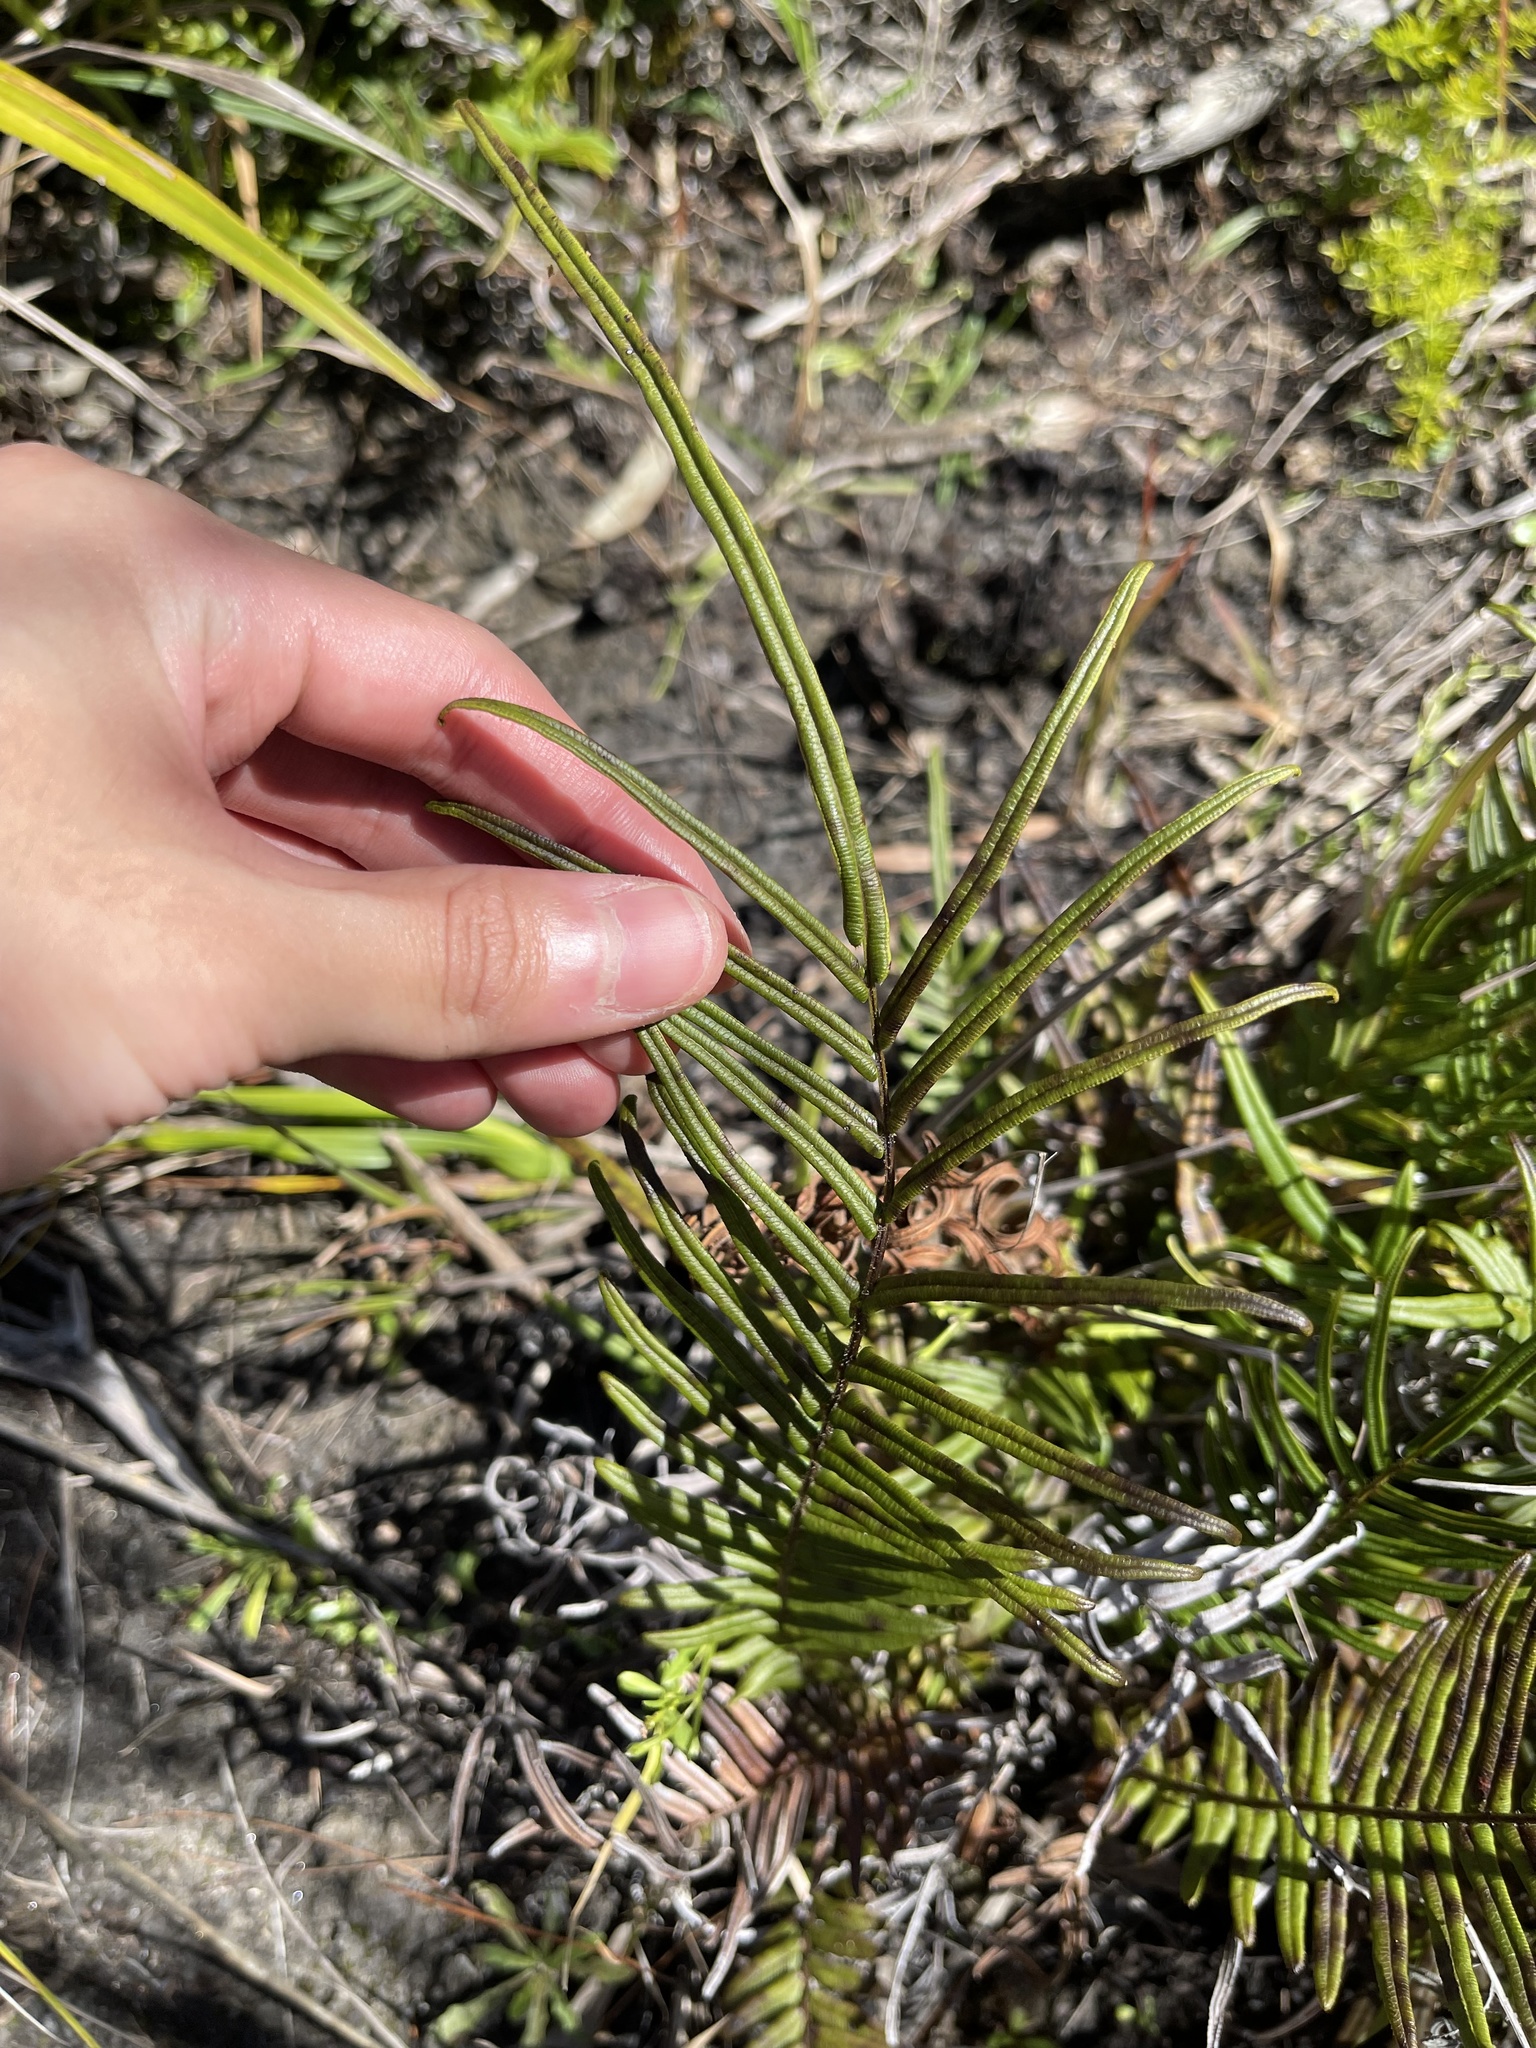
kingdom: Plantae
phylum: Tracheophyta
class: Polypodiopsida
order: Polypodiales
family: Pteridaceae
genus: Pteris
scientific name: Pteris vittata
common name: Ladder brake
